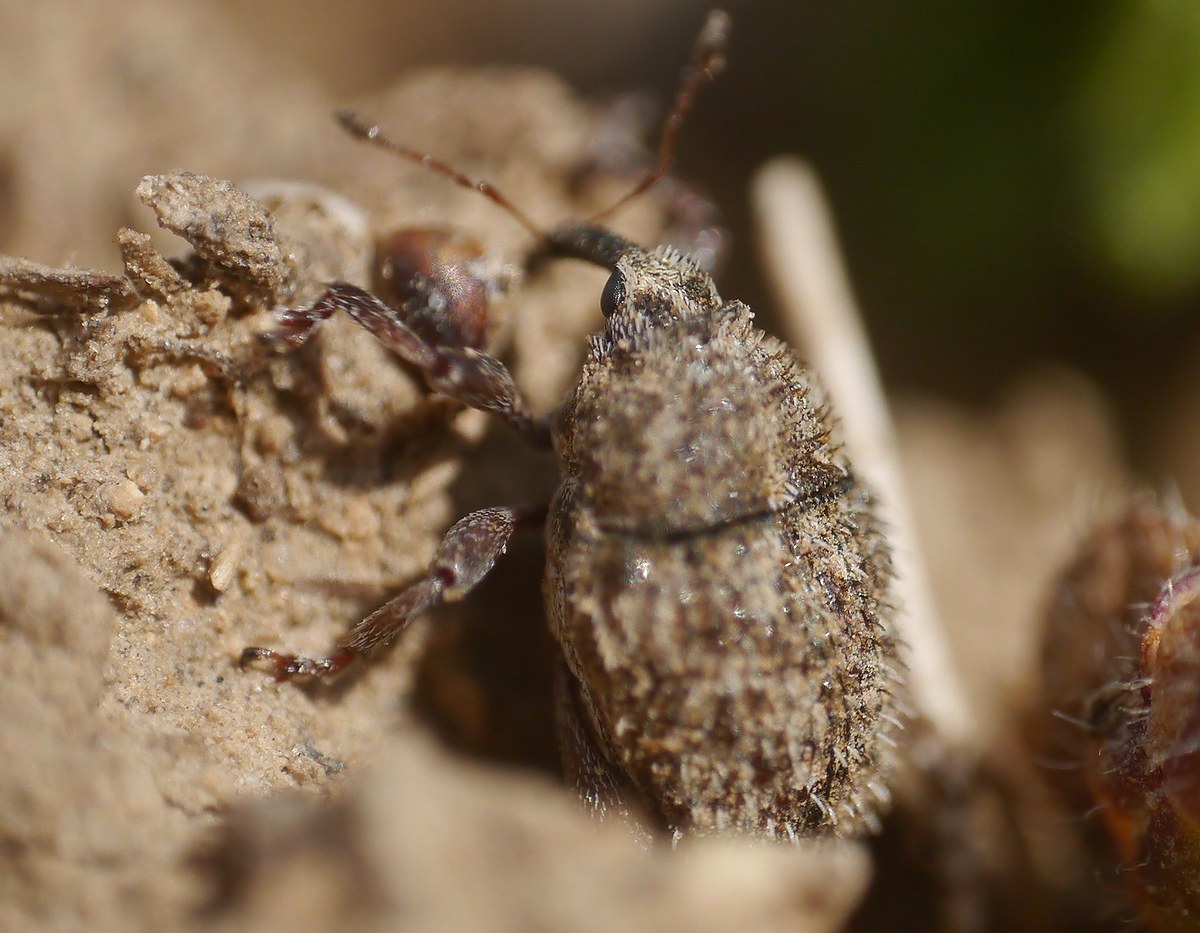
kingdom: Animalia
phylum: Arthropoda
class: Insecta
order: Coleoptera
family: Curculionidae
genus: Trichosirocalus
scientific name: Trichosirocalus horridus
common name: Musk thistle rosette weevil
